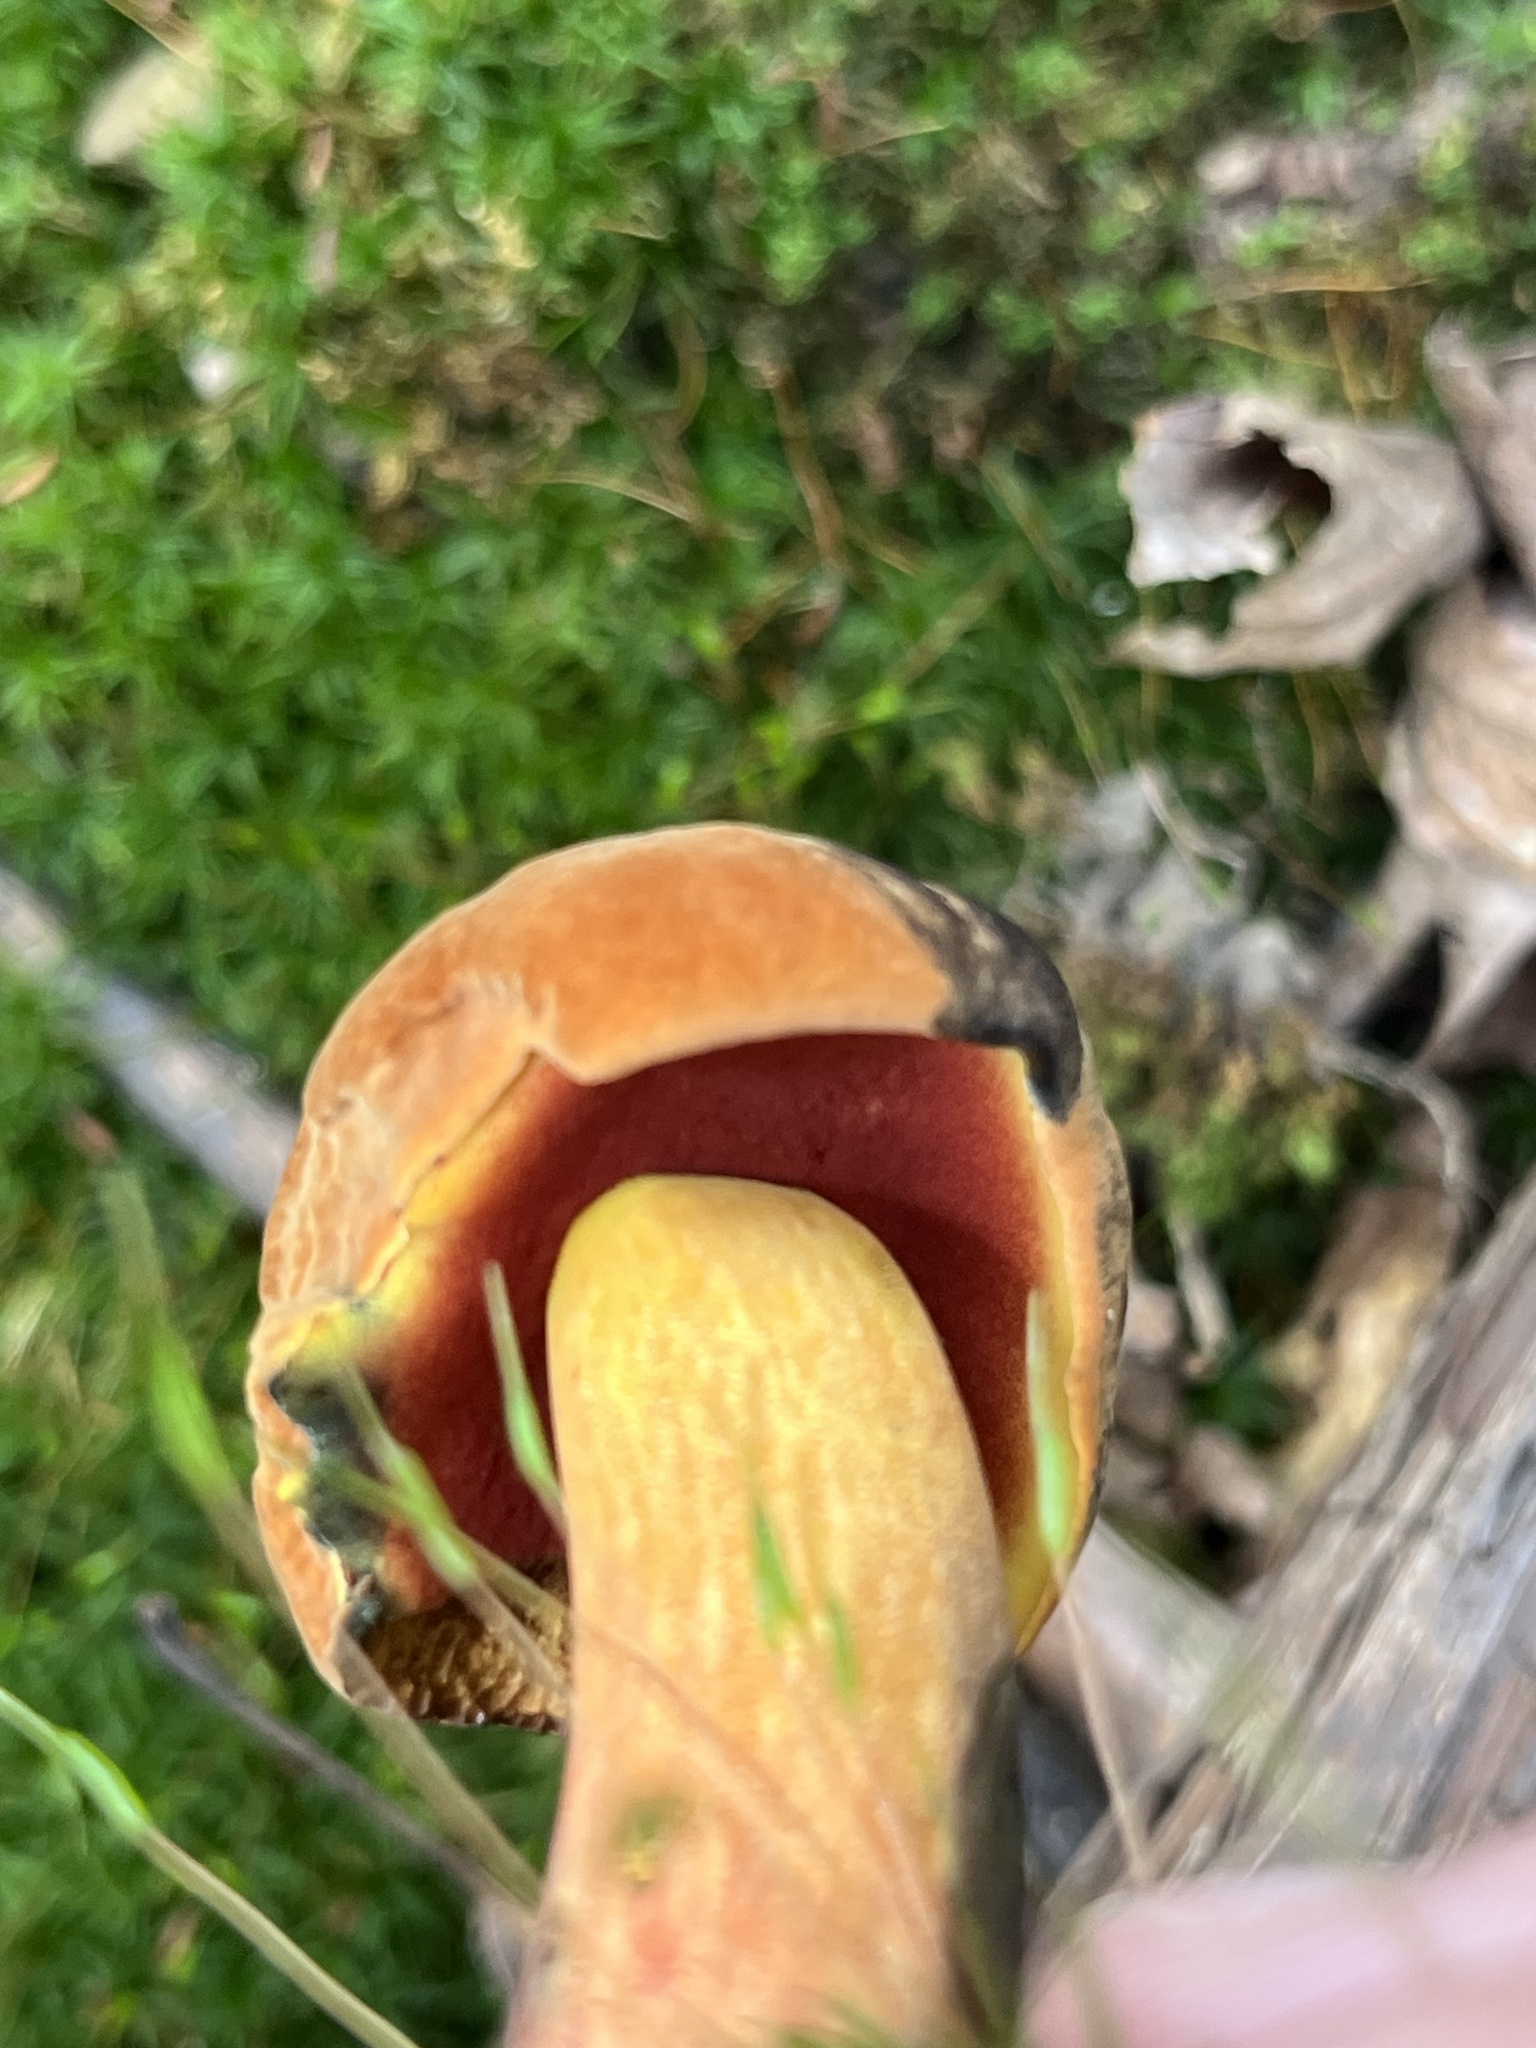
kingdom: Fungi
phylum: Basidiomycota
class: Agaricomycetes
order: Boletales
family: Boletaceae
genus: Boletus
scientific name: Boletus subvelutipes
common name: Red-mouth bolete
